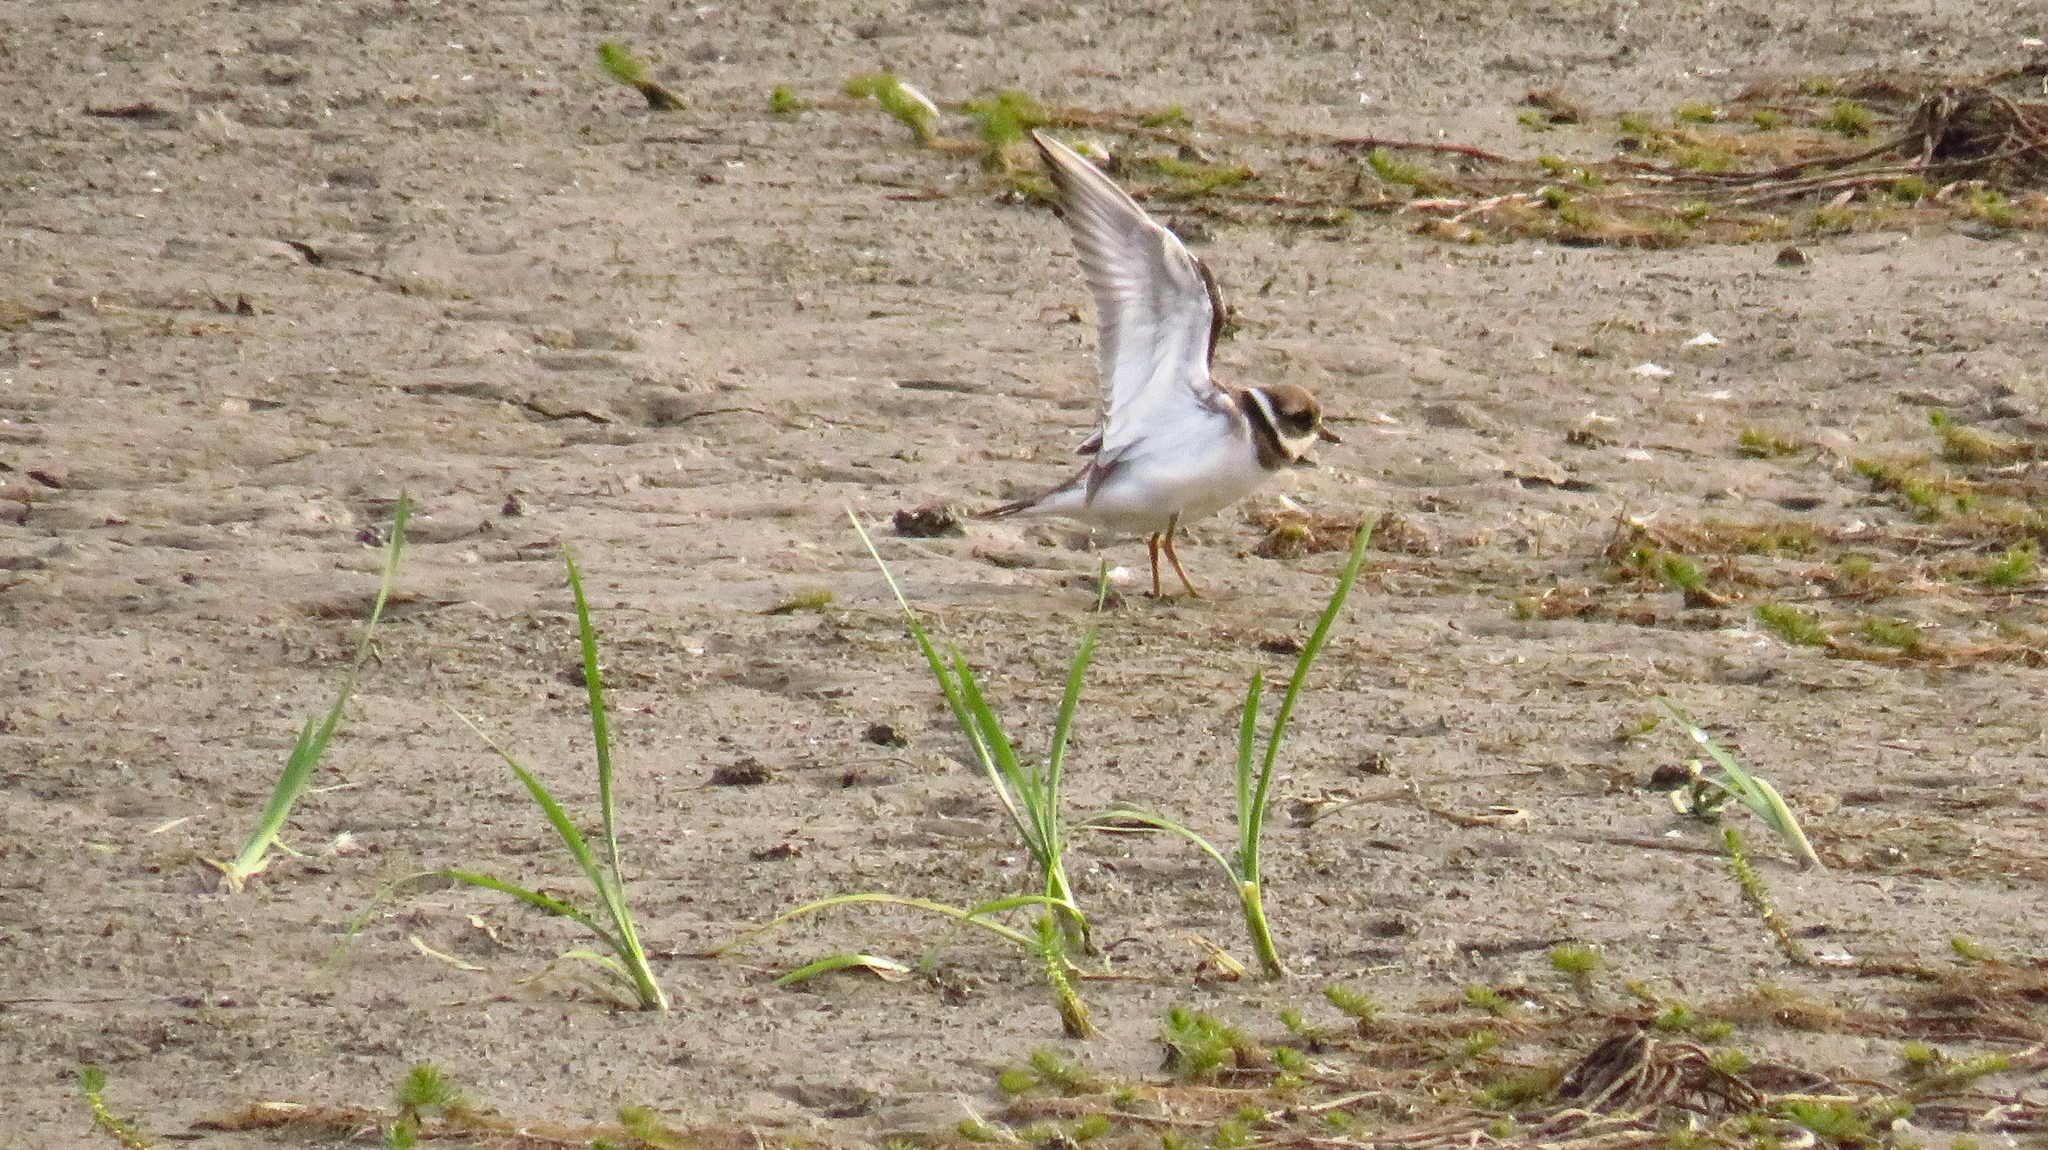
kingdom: Animalia
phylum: Chordata
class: Aves
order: Charadriiformes
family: Charadriidae
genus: Charadrius
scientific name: Charadrius hiaticula
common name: Common ringed plover
